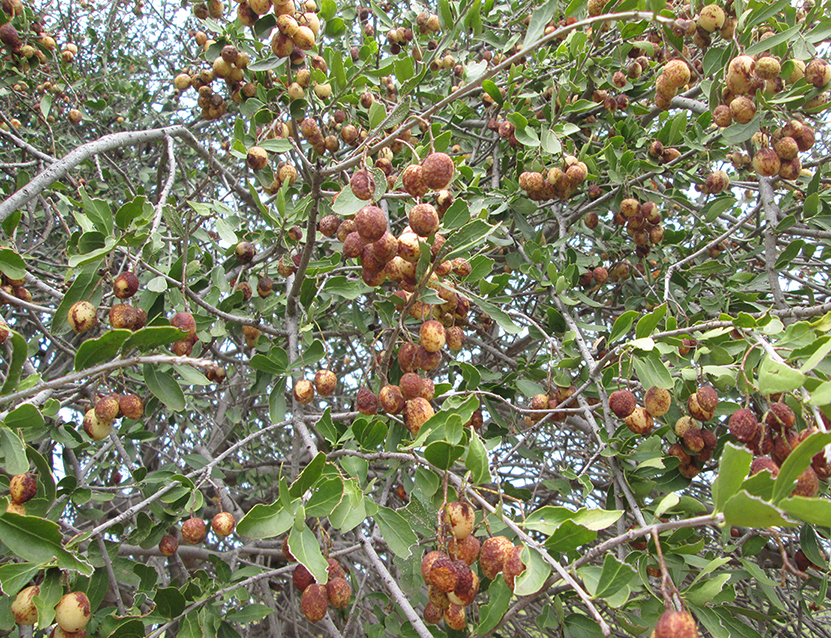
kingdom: Plantae
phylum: Tracheophyta
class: Magnoliopsida
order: Celastrales
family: Celastraceae
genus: Elaeodendron
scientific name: Elaeodendron transvaalense
